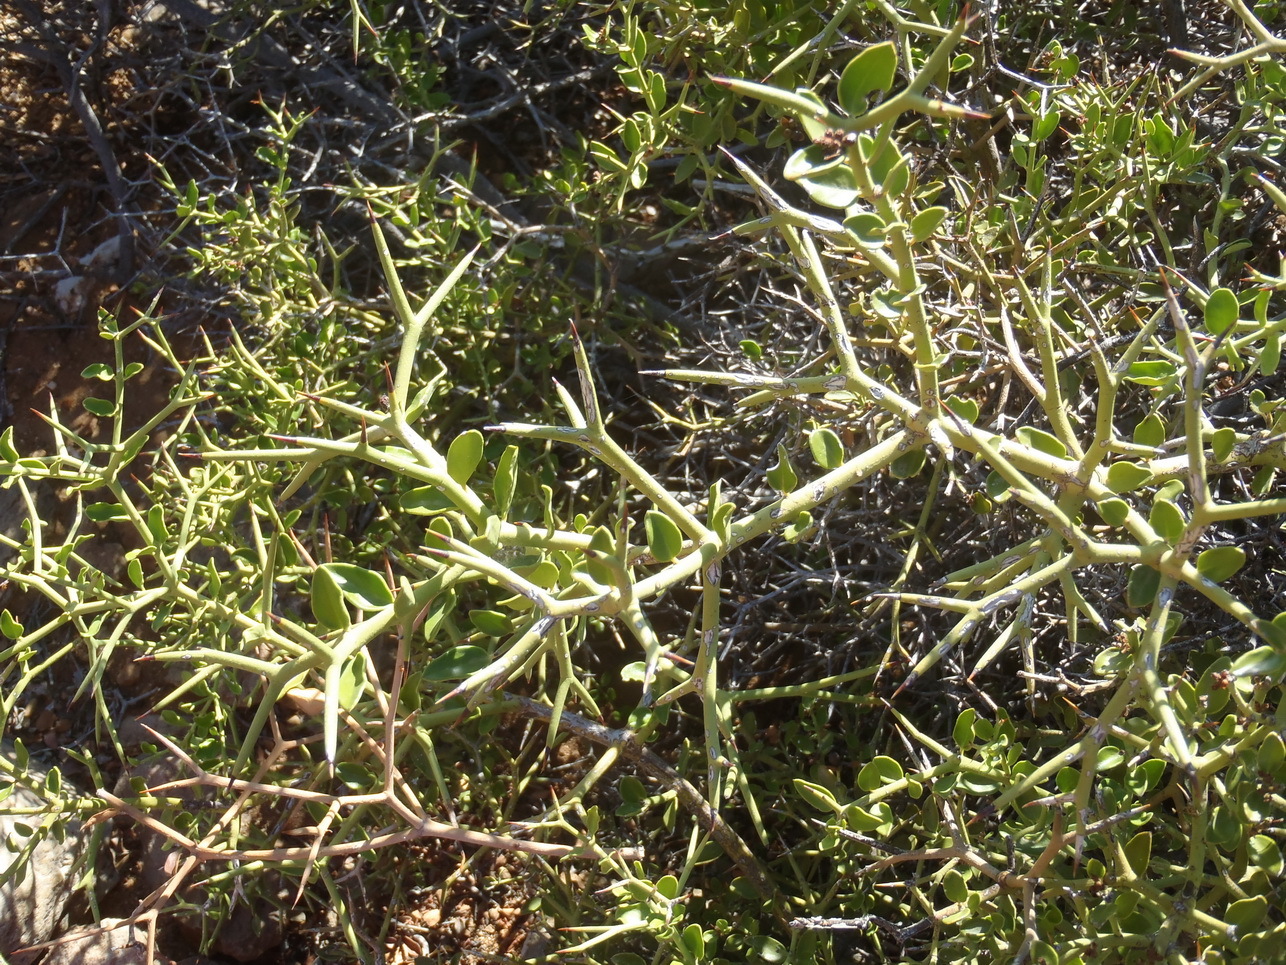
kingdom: Plantae
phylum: Tracheophyta
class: Magnoliopsida
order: Gentianales
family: Apocynaceae
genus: Carissa
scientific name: Carissa haematocarpa
